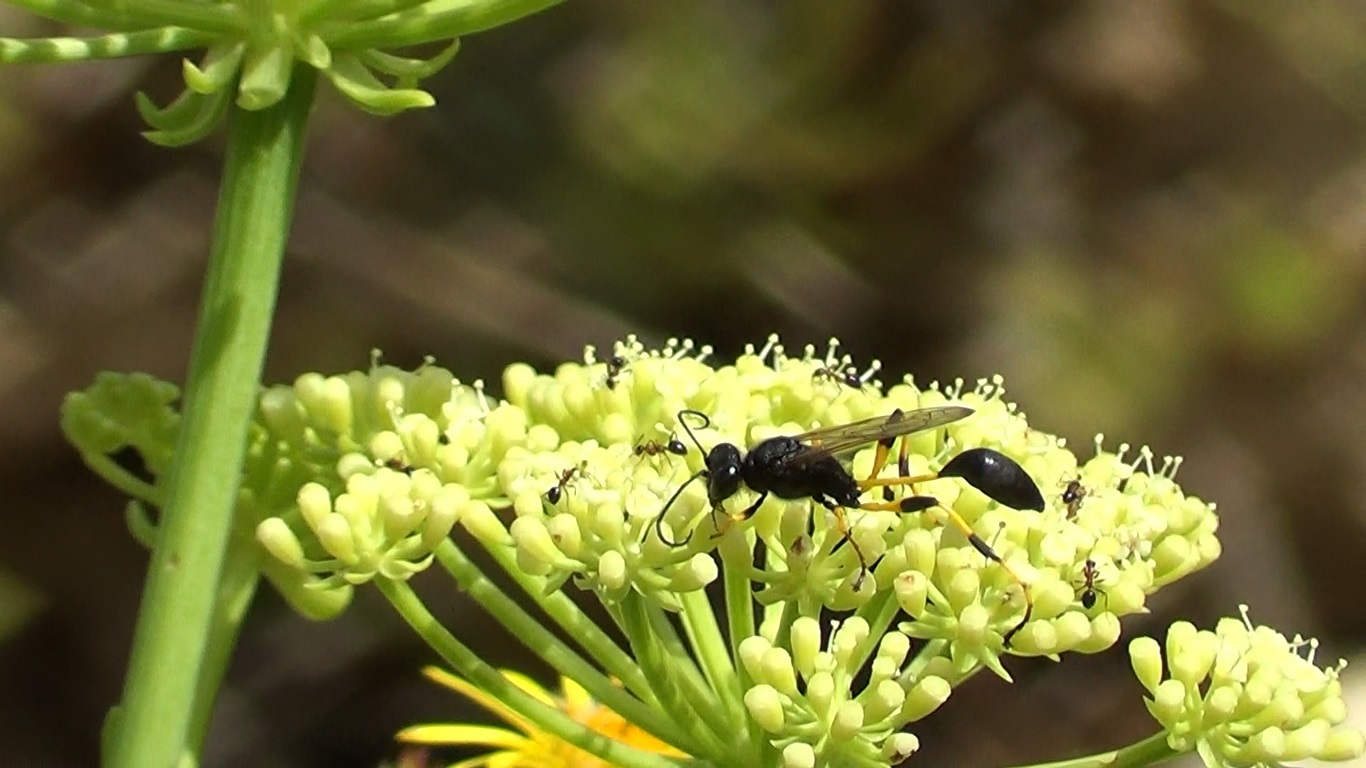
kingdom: Animalia
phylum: Arthropoda
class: Insecta
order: Hymenoptera
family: Sphecidae
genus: Sceliphron
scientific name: Sceliphron spirifex
